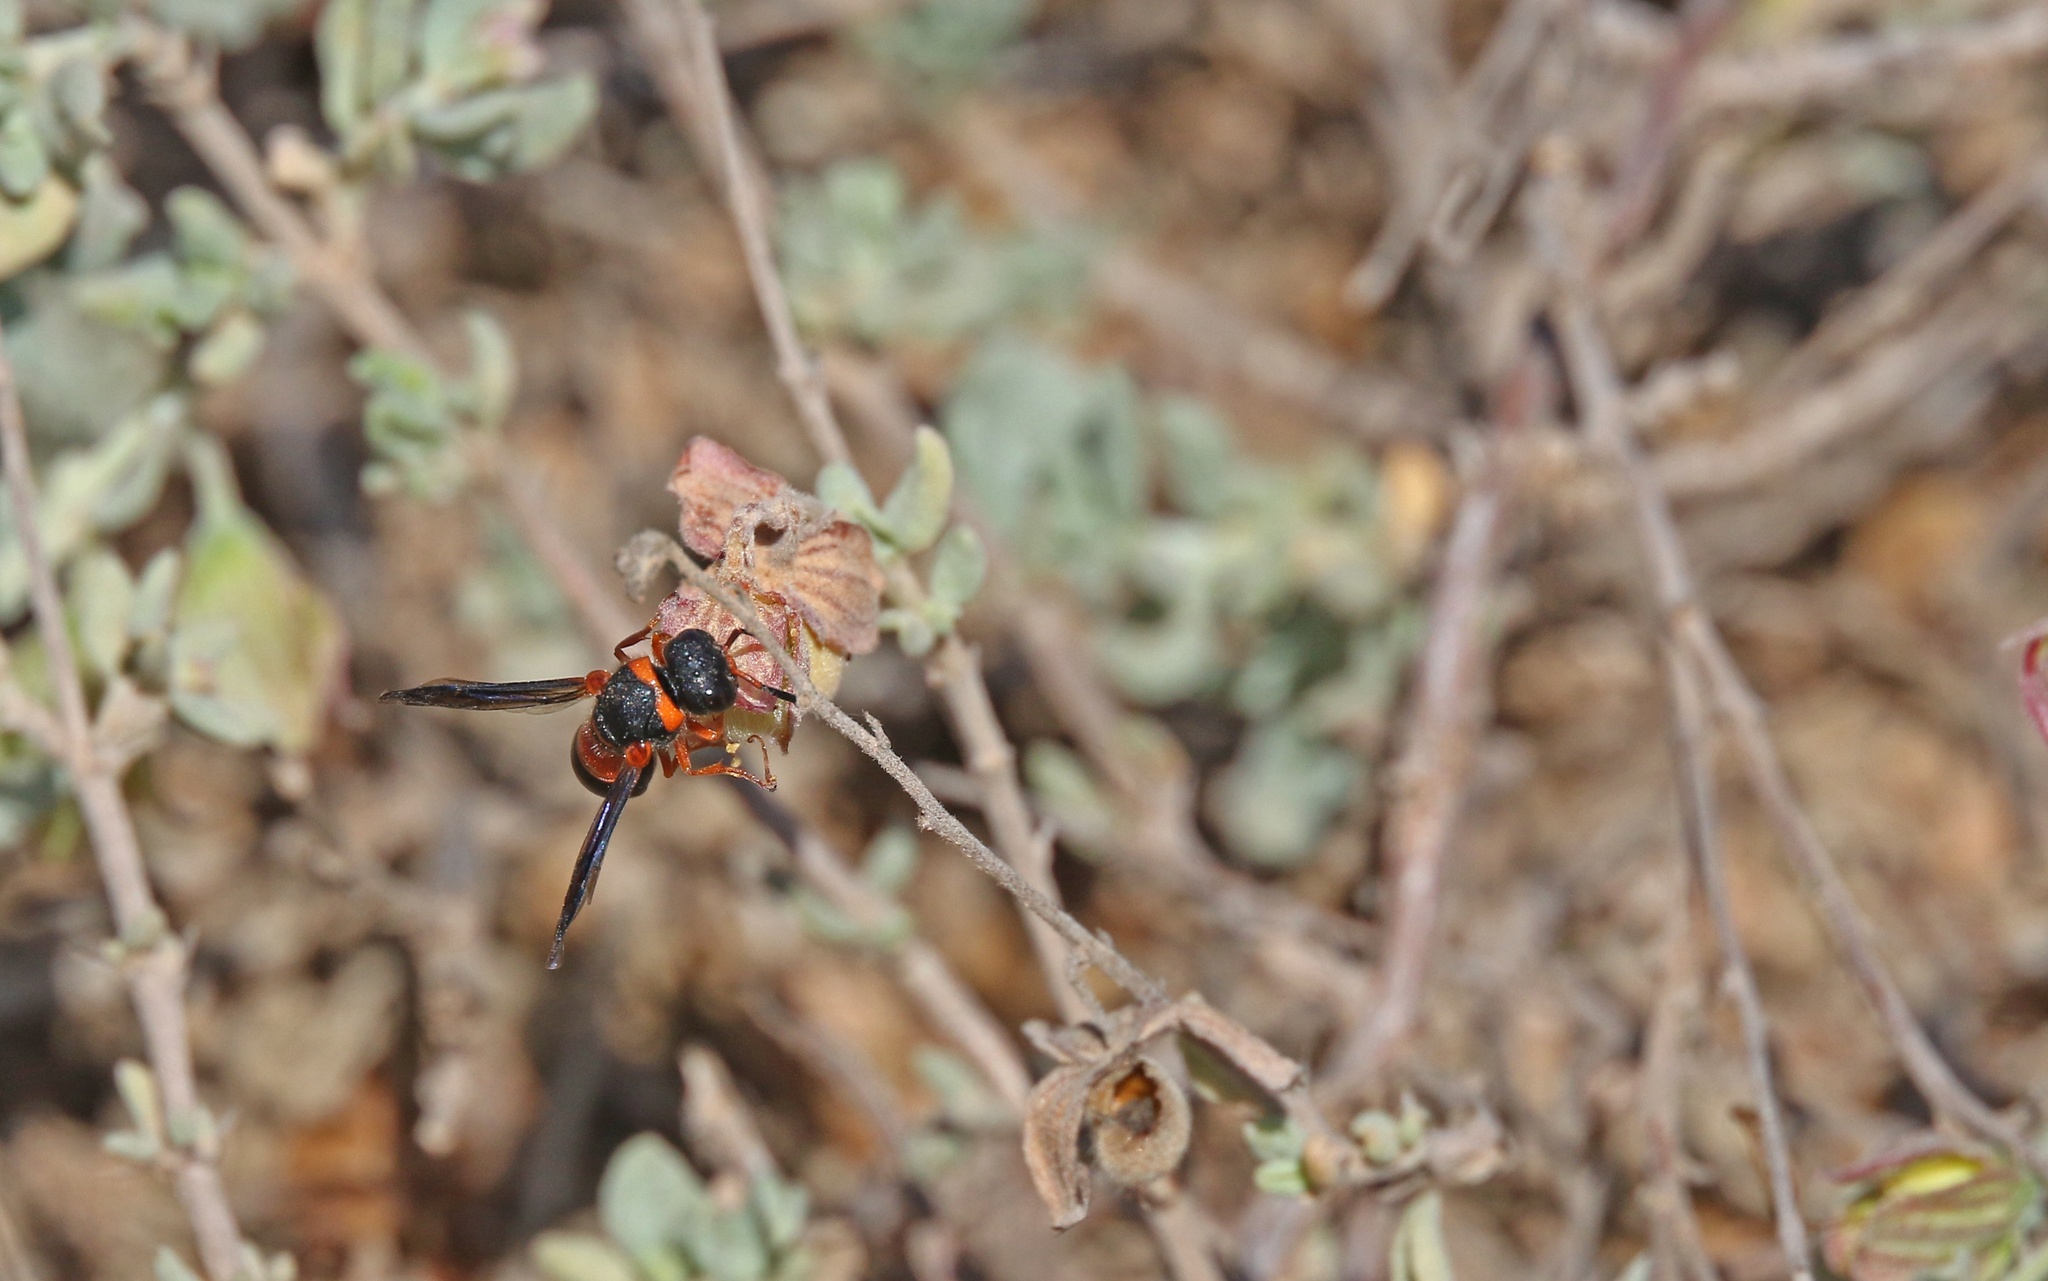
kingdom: Animalia
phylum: Arthropoda
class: Insecta
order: Hymenoptera
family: Eumenidae
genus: Leptochilus
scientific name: Leptochilus fortunatus
